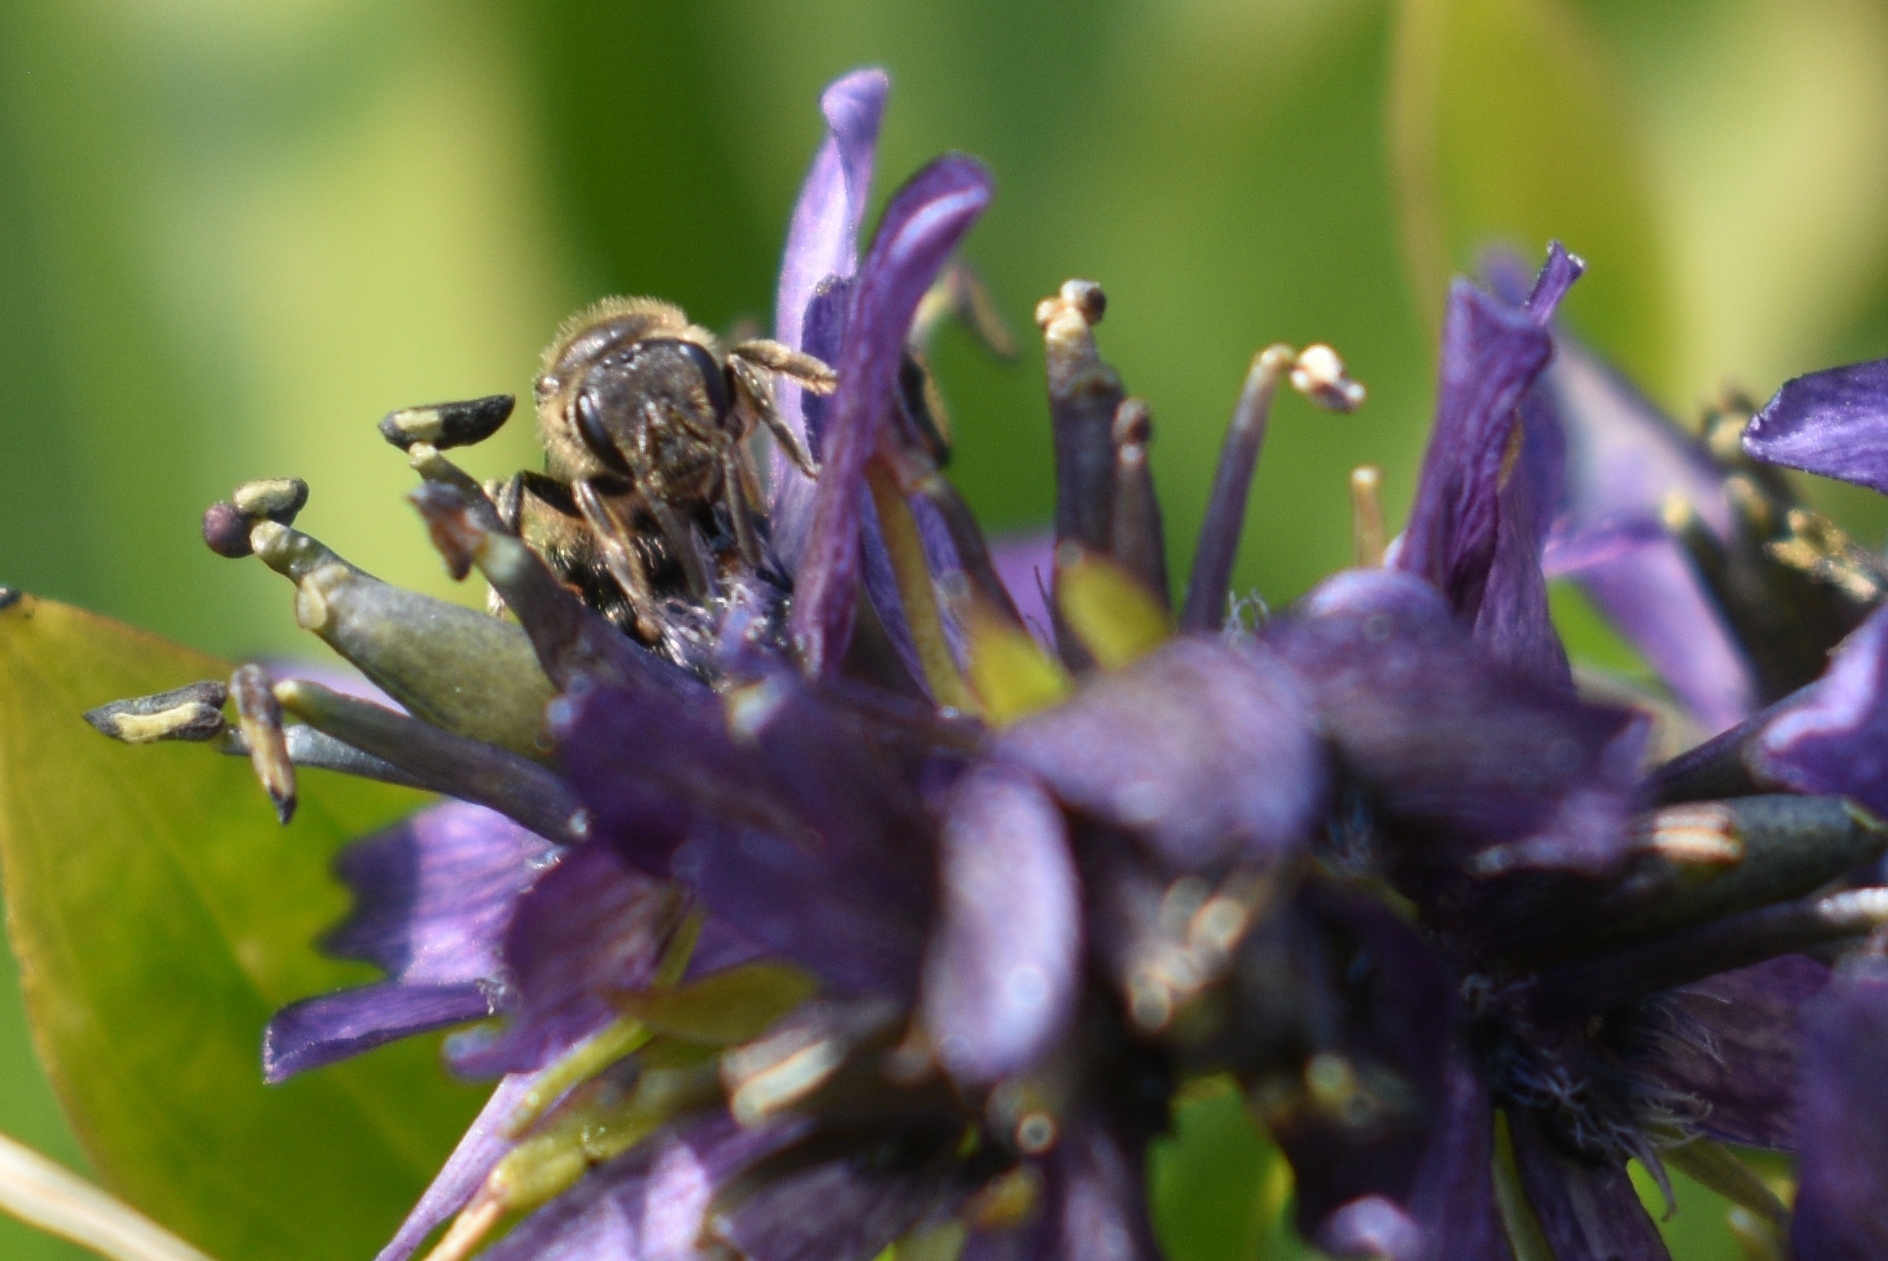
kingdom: Animalia
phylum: Arthropoda
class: Insecta
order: Hymenoptera
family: Halictidae
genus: Lasioglossum
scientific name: Lasioglossum
